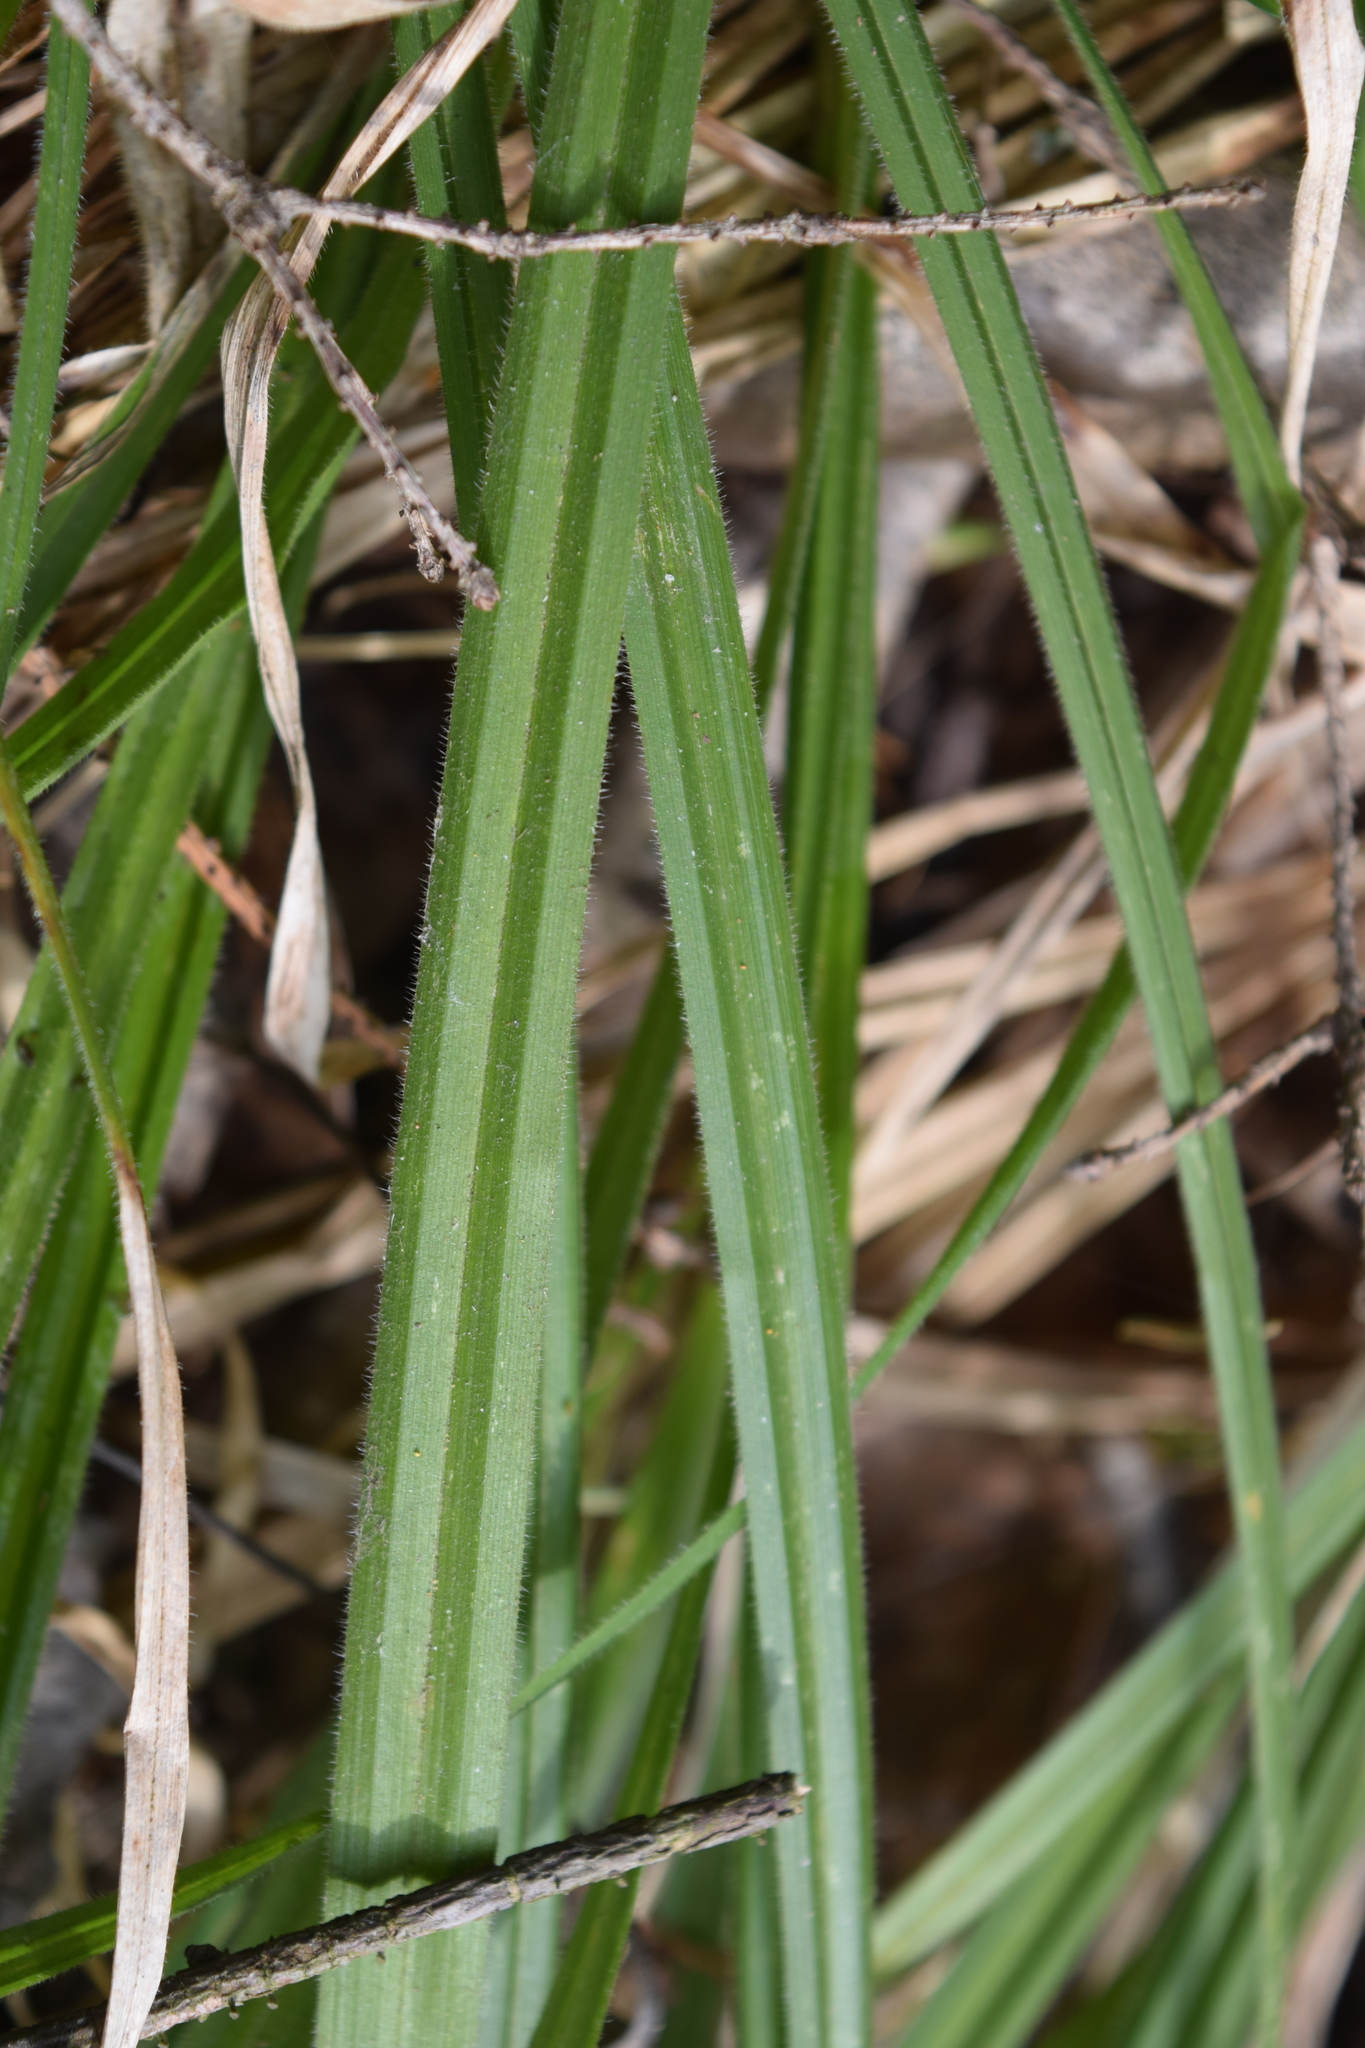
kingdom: Plantae
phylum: Tracheophyta
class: Liliopsida
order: Poales
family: Cyperaceae
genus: Carex
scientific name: Carex pilosa
